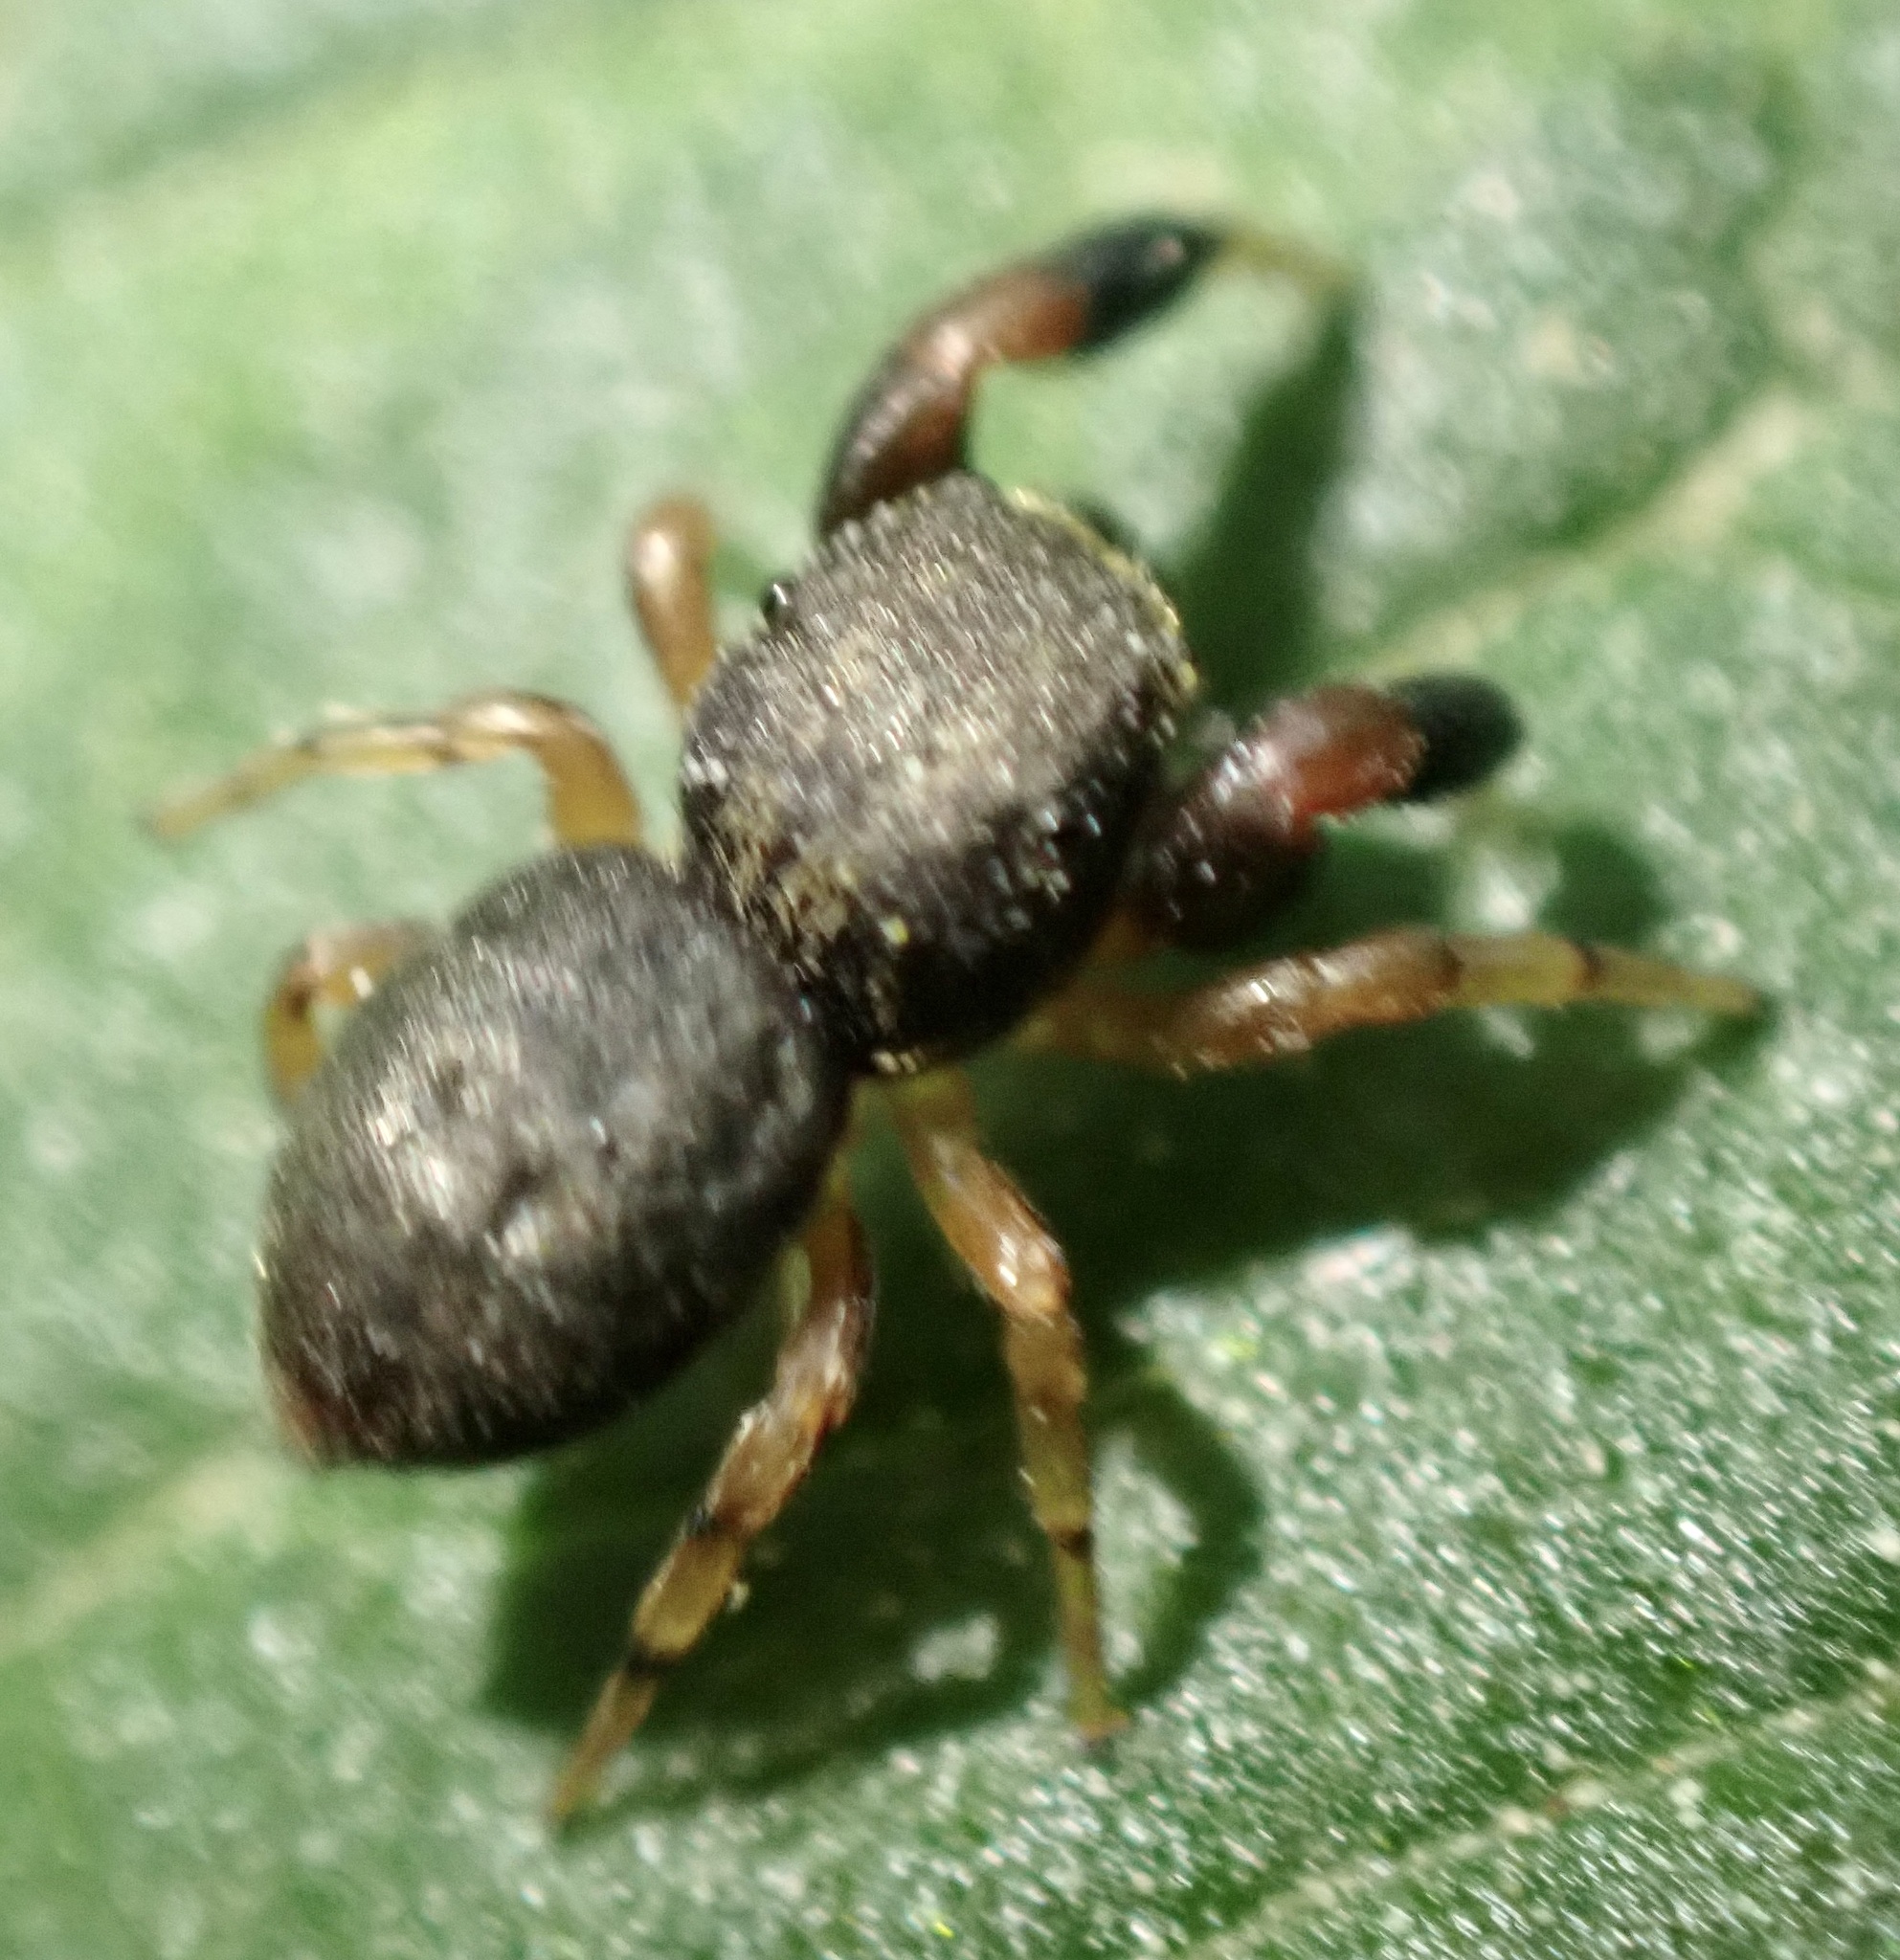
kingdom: Animalia
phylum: Arthropoda
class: Arachnida
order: Araneae
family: Salticidae
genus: Ballus
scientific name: Ballus chalybeius
